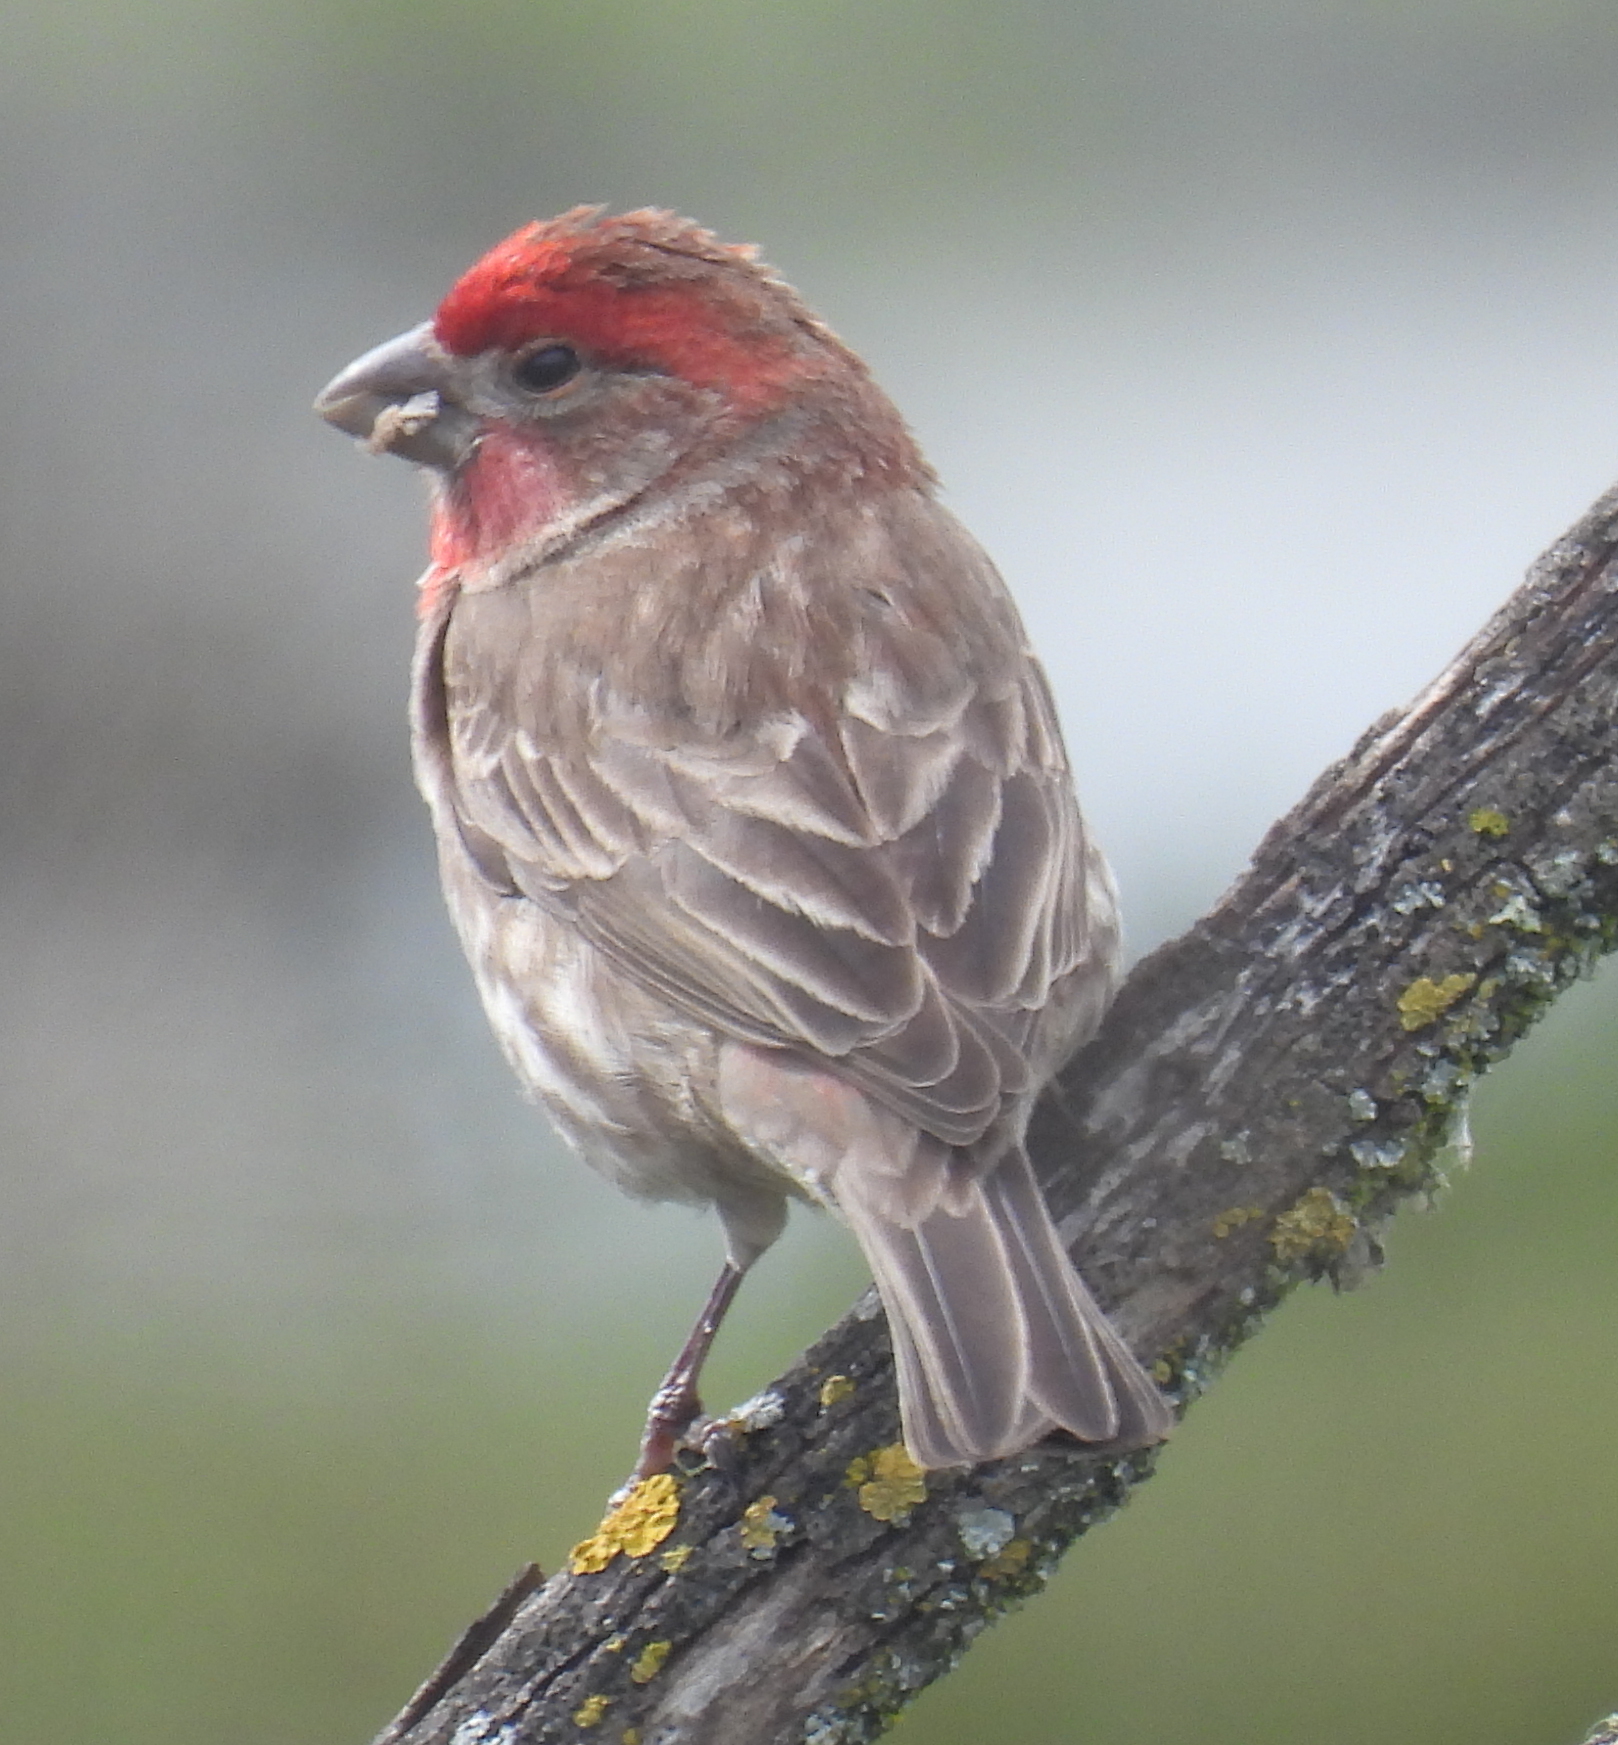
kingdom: Animalia
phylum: Chordata
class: Aves
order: Passeriformes
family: Fringillidae
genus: Haemorhous
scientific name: Haemorhous mexicanus
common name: House finch
